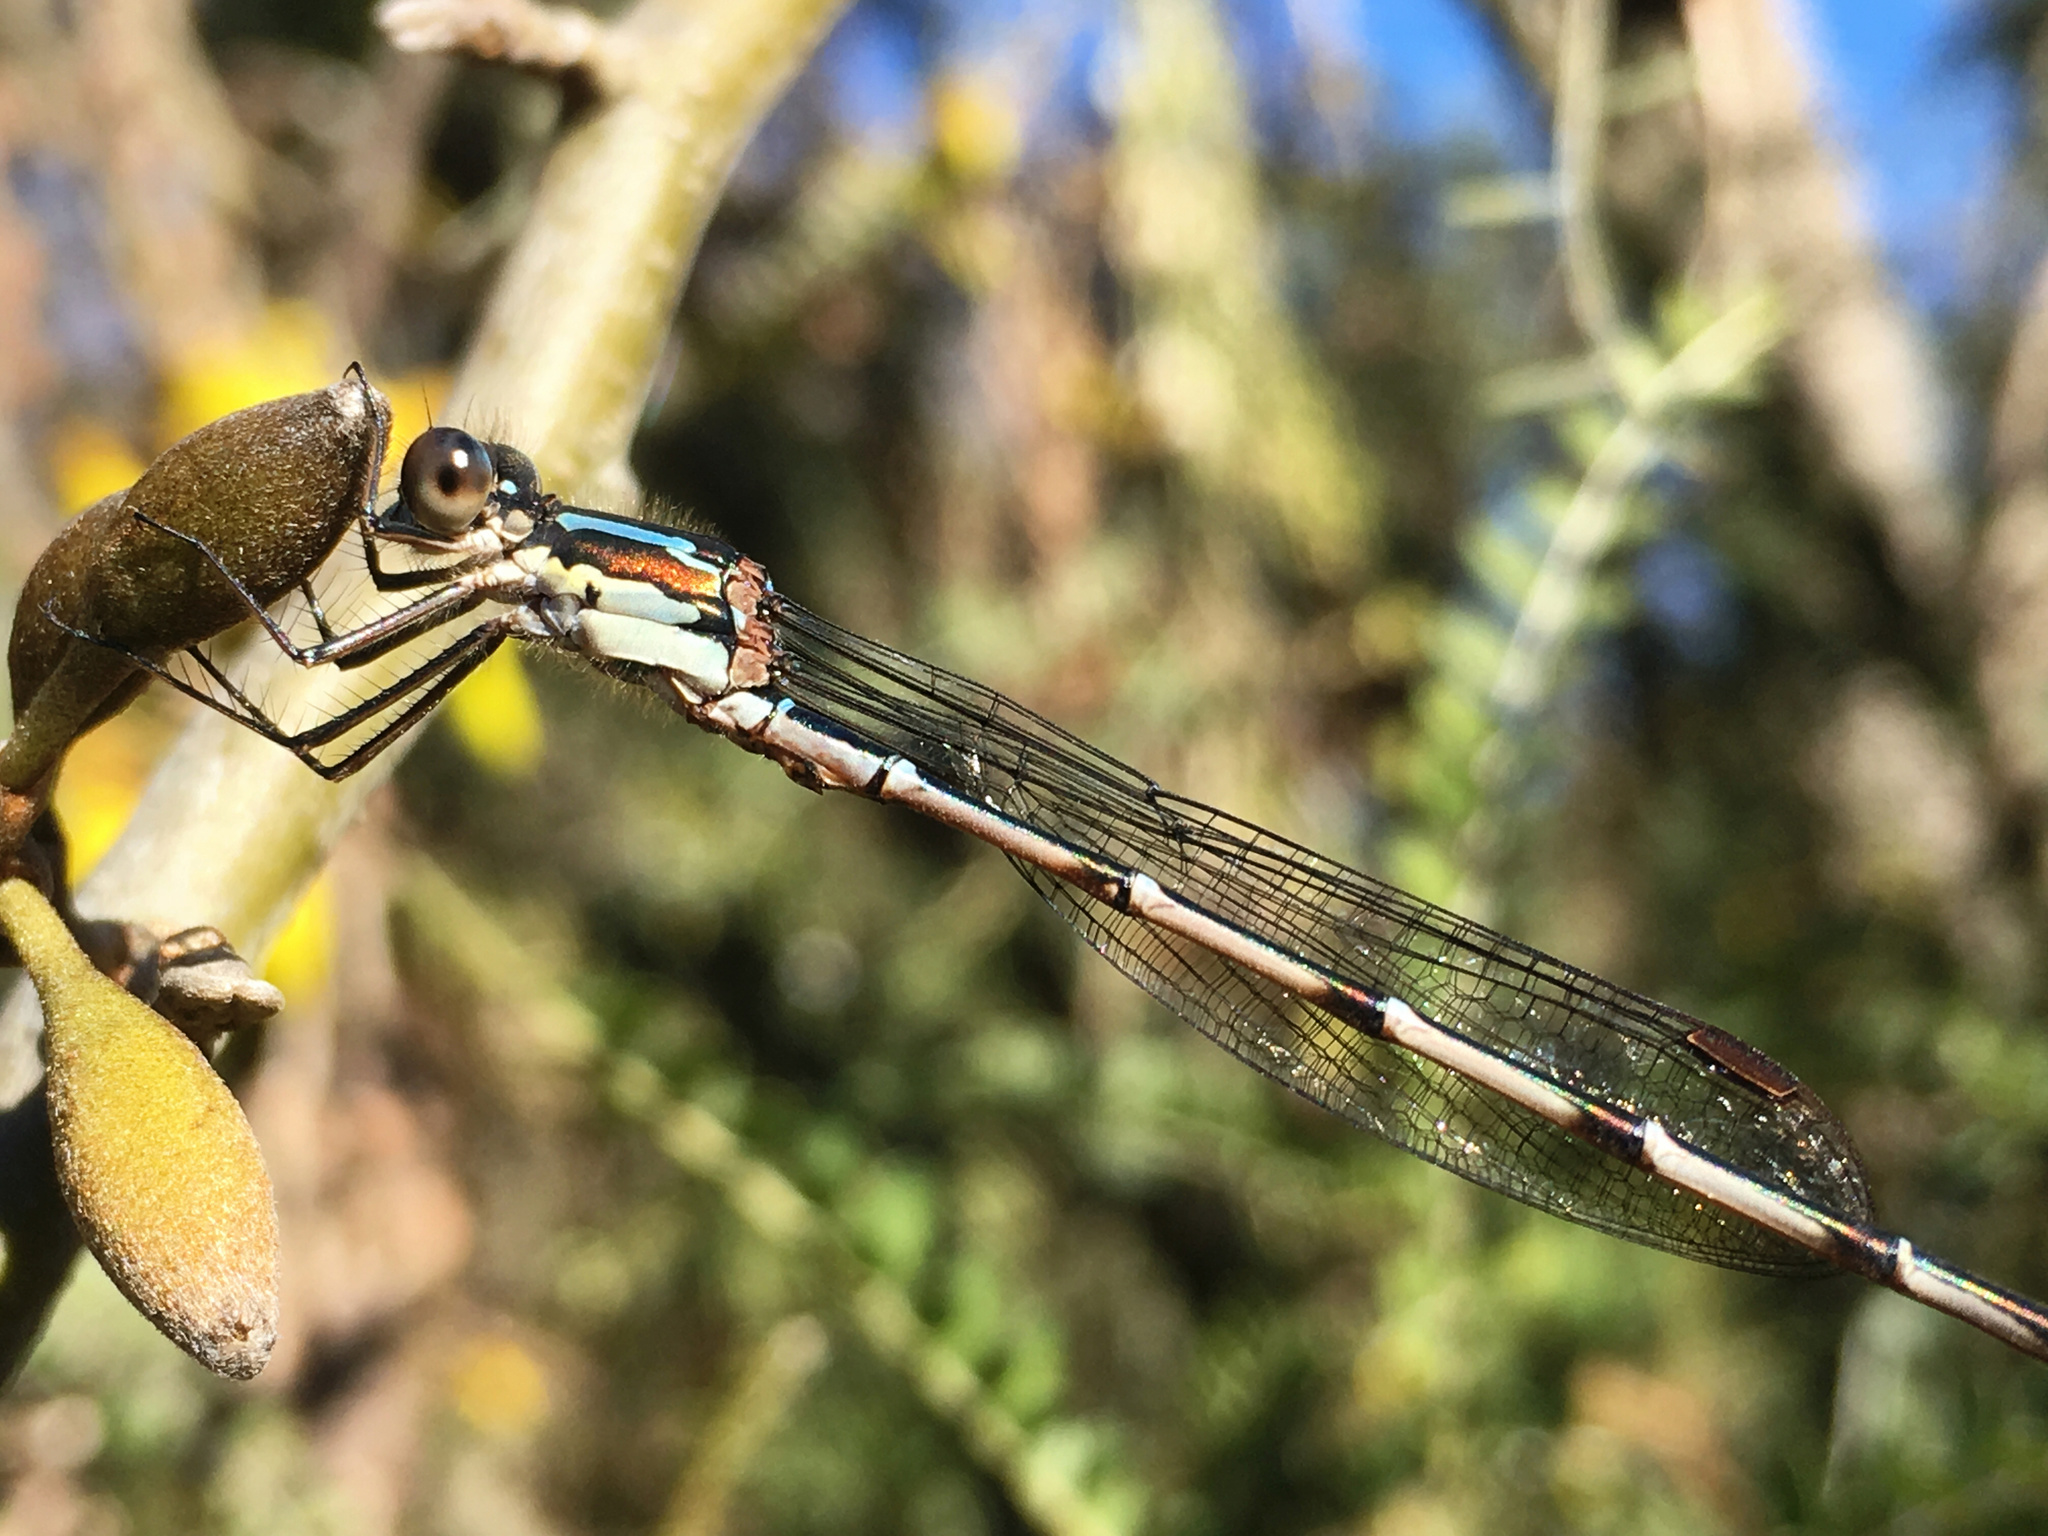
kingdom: Animalia
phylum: Arthropoda
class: Insecta
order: Odonata
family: Lestidae
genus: Austrolestes
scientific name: Austrolestes colensonis
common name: Blue damselfly
